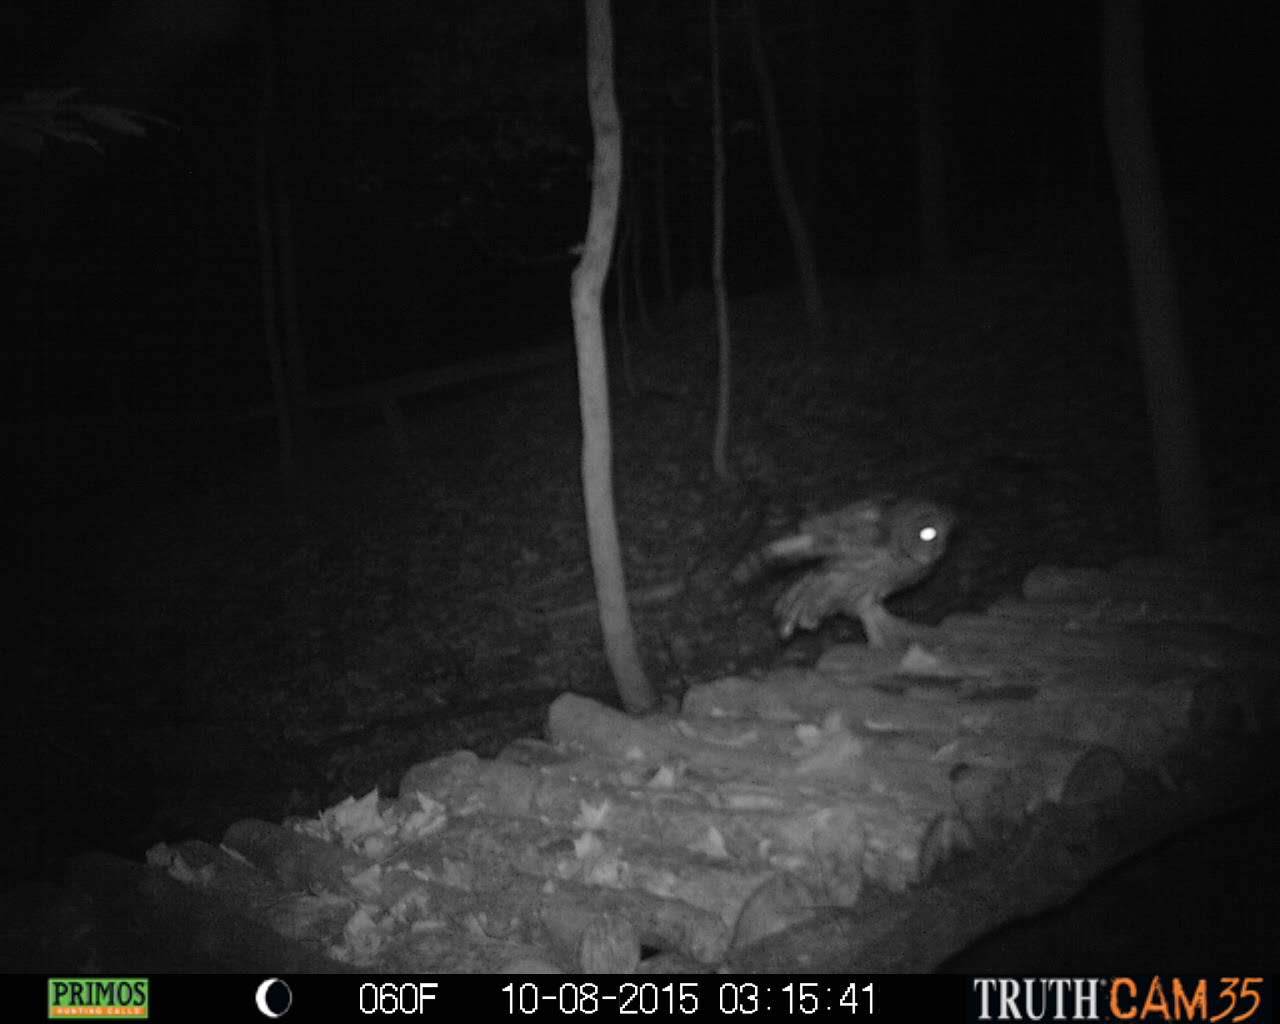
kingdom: Animalia
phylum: Chordata
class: Aves
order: Strigiformes
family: Strigidae
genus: Strix
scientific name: Strix varia
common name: Barred owl
